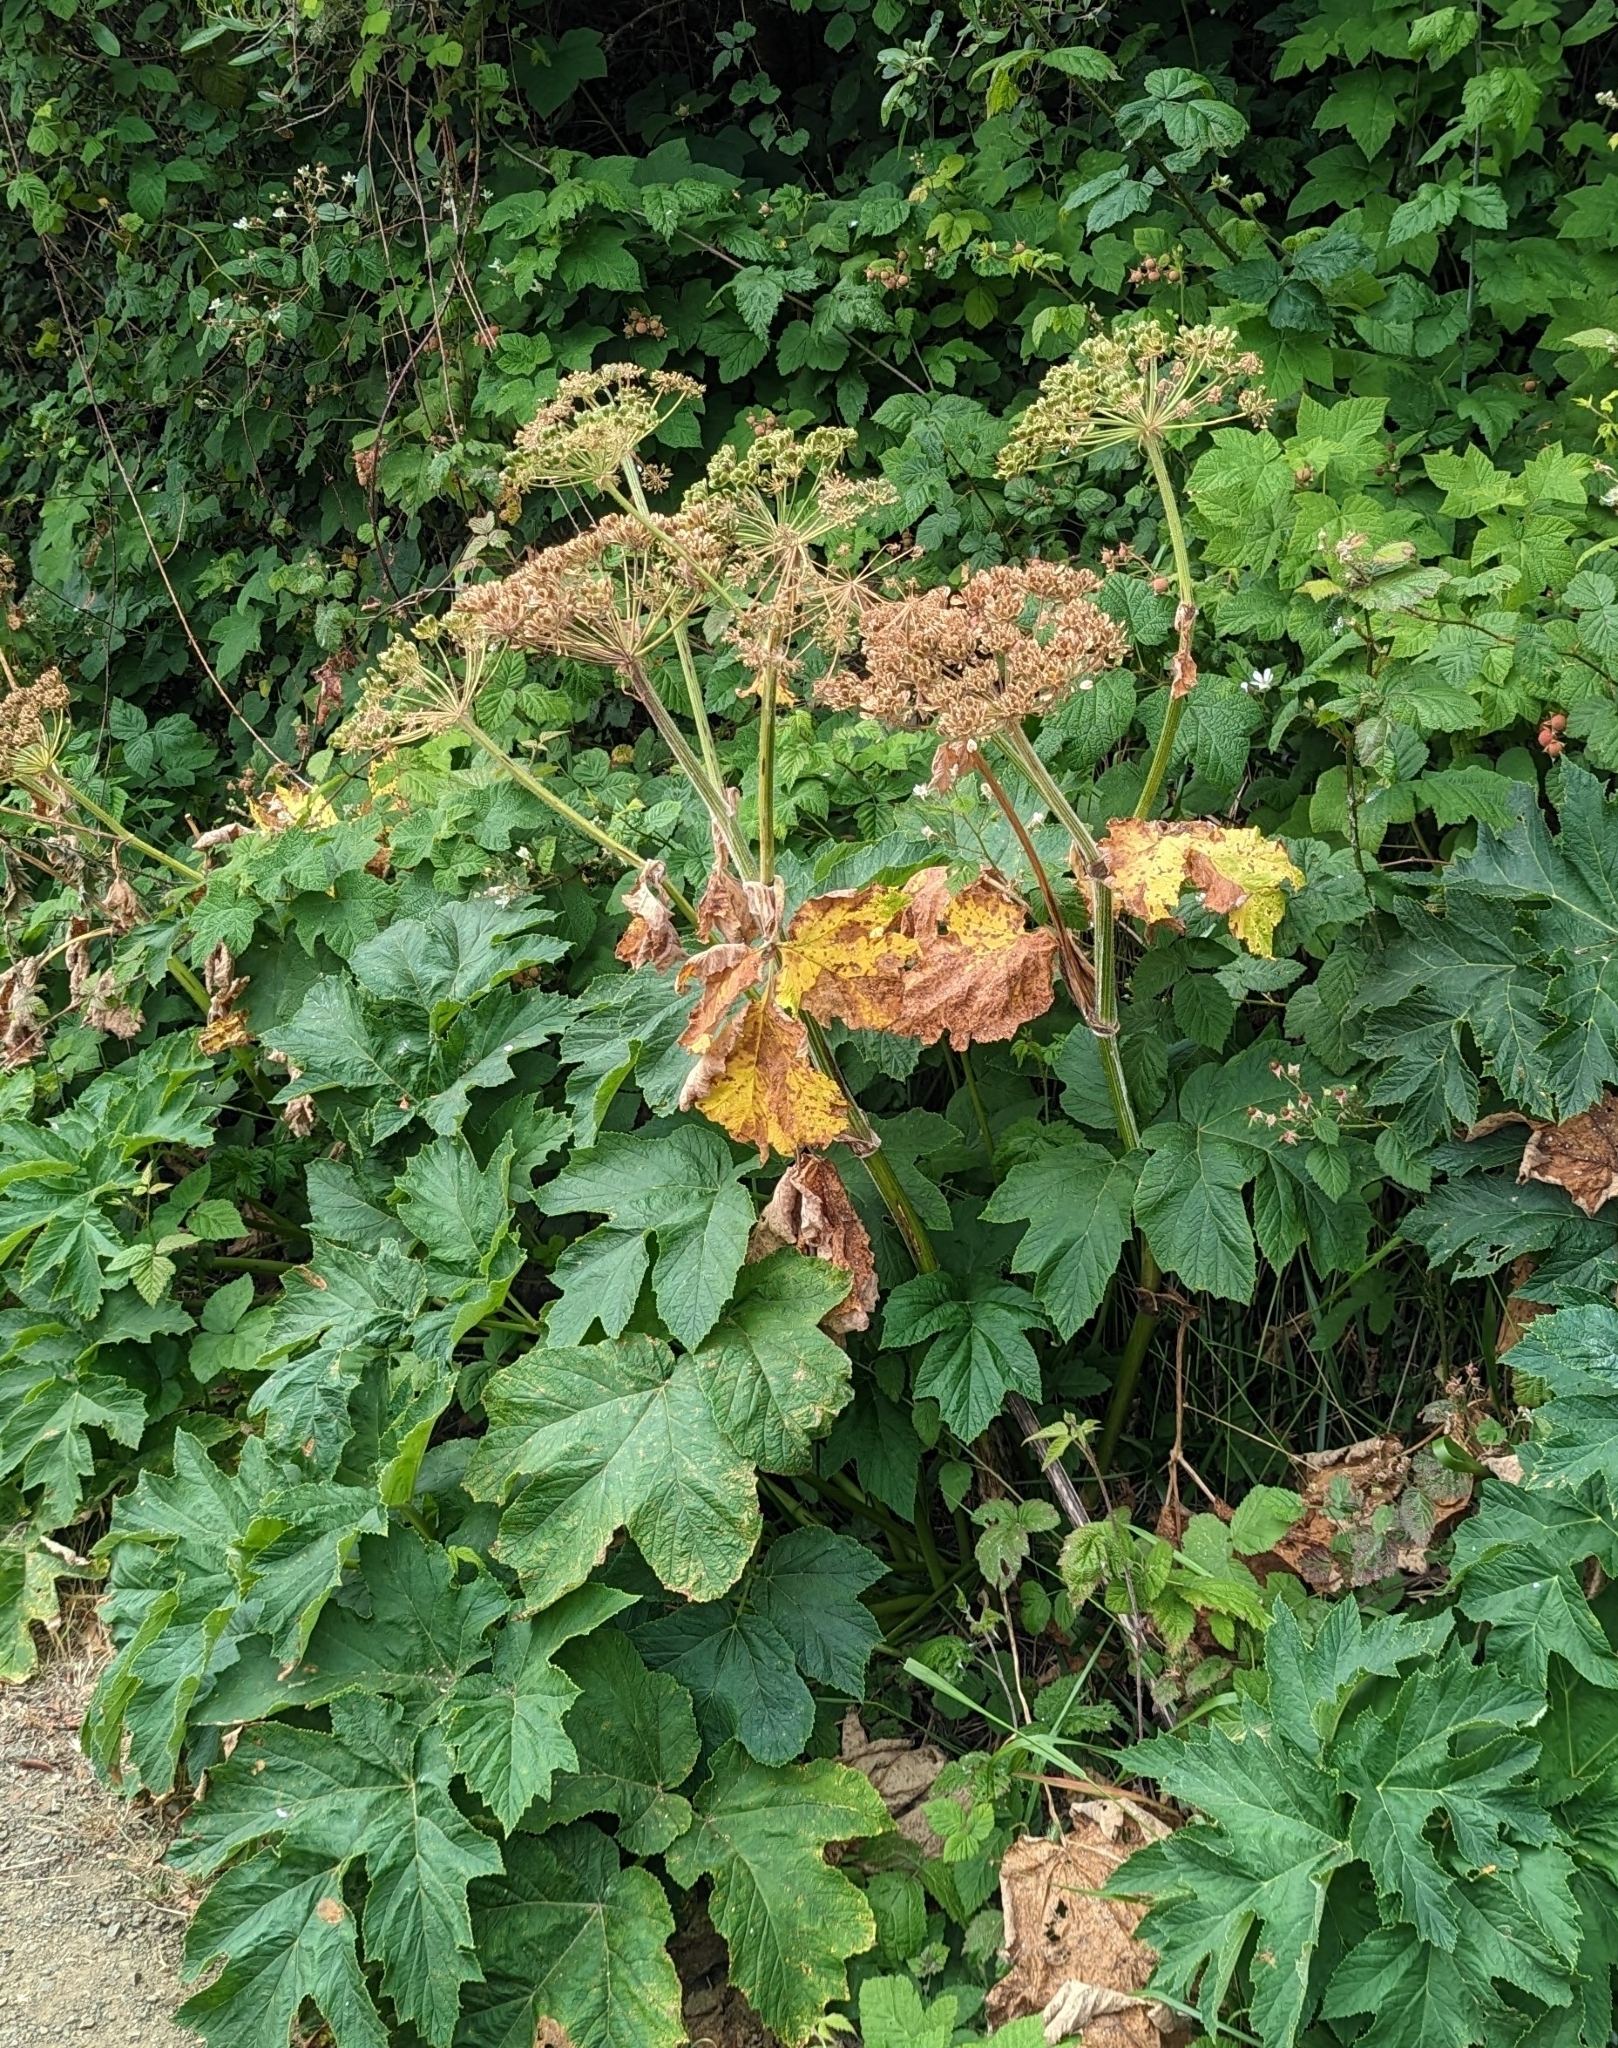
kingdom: Plantae
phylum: Tracheophyta
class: Magnoliopsida
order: Apiales
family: Apiaceae
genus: Heracleum
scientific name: Heracleum maximum
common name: American cow parsnip
